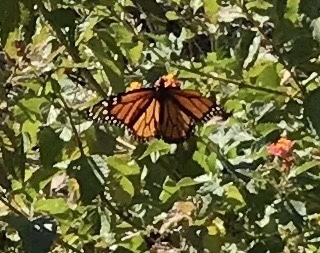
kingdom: Animalia
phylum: Arthropoda
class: Insecta
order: Lepidoptera
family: Nymphalidae
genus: Danaus
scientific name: Danaus plexippus
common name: Monarch
